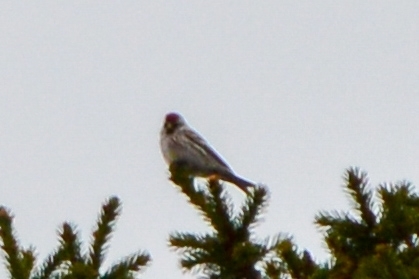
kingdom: Animalia
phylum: Chordata
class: Aves
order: Passeriformes
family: Fringillidae
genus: Acanthis
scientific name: Acanthis flammea
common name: Common redpoll
